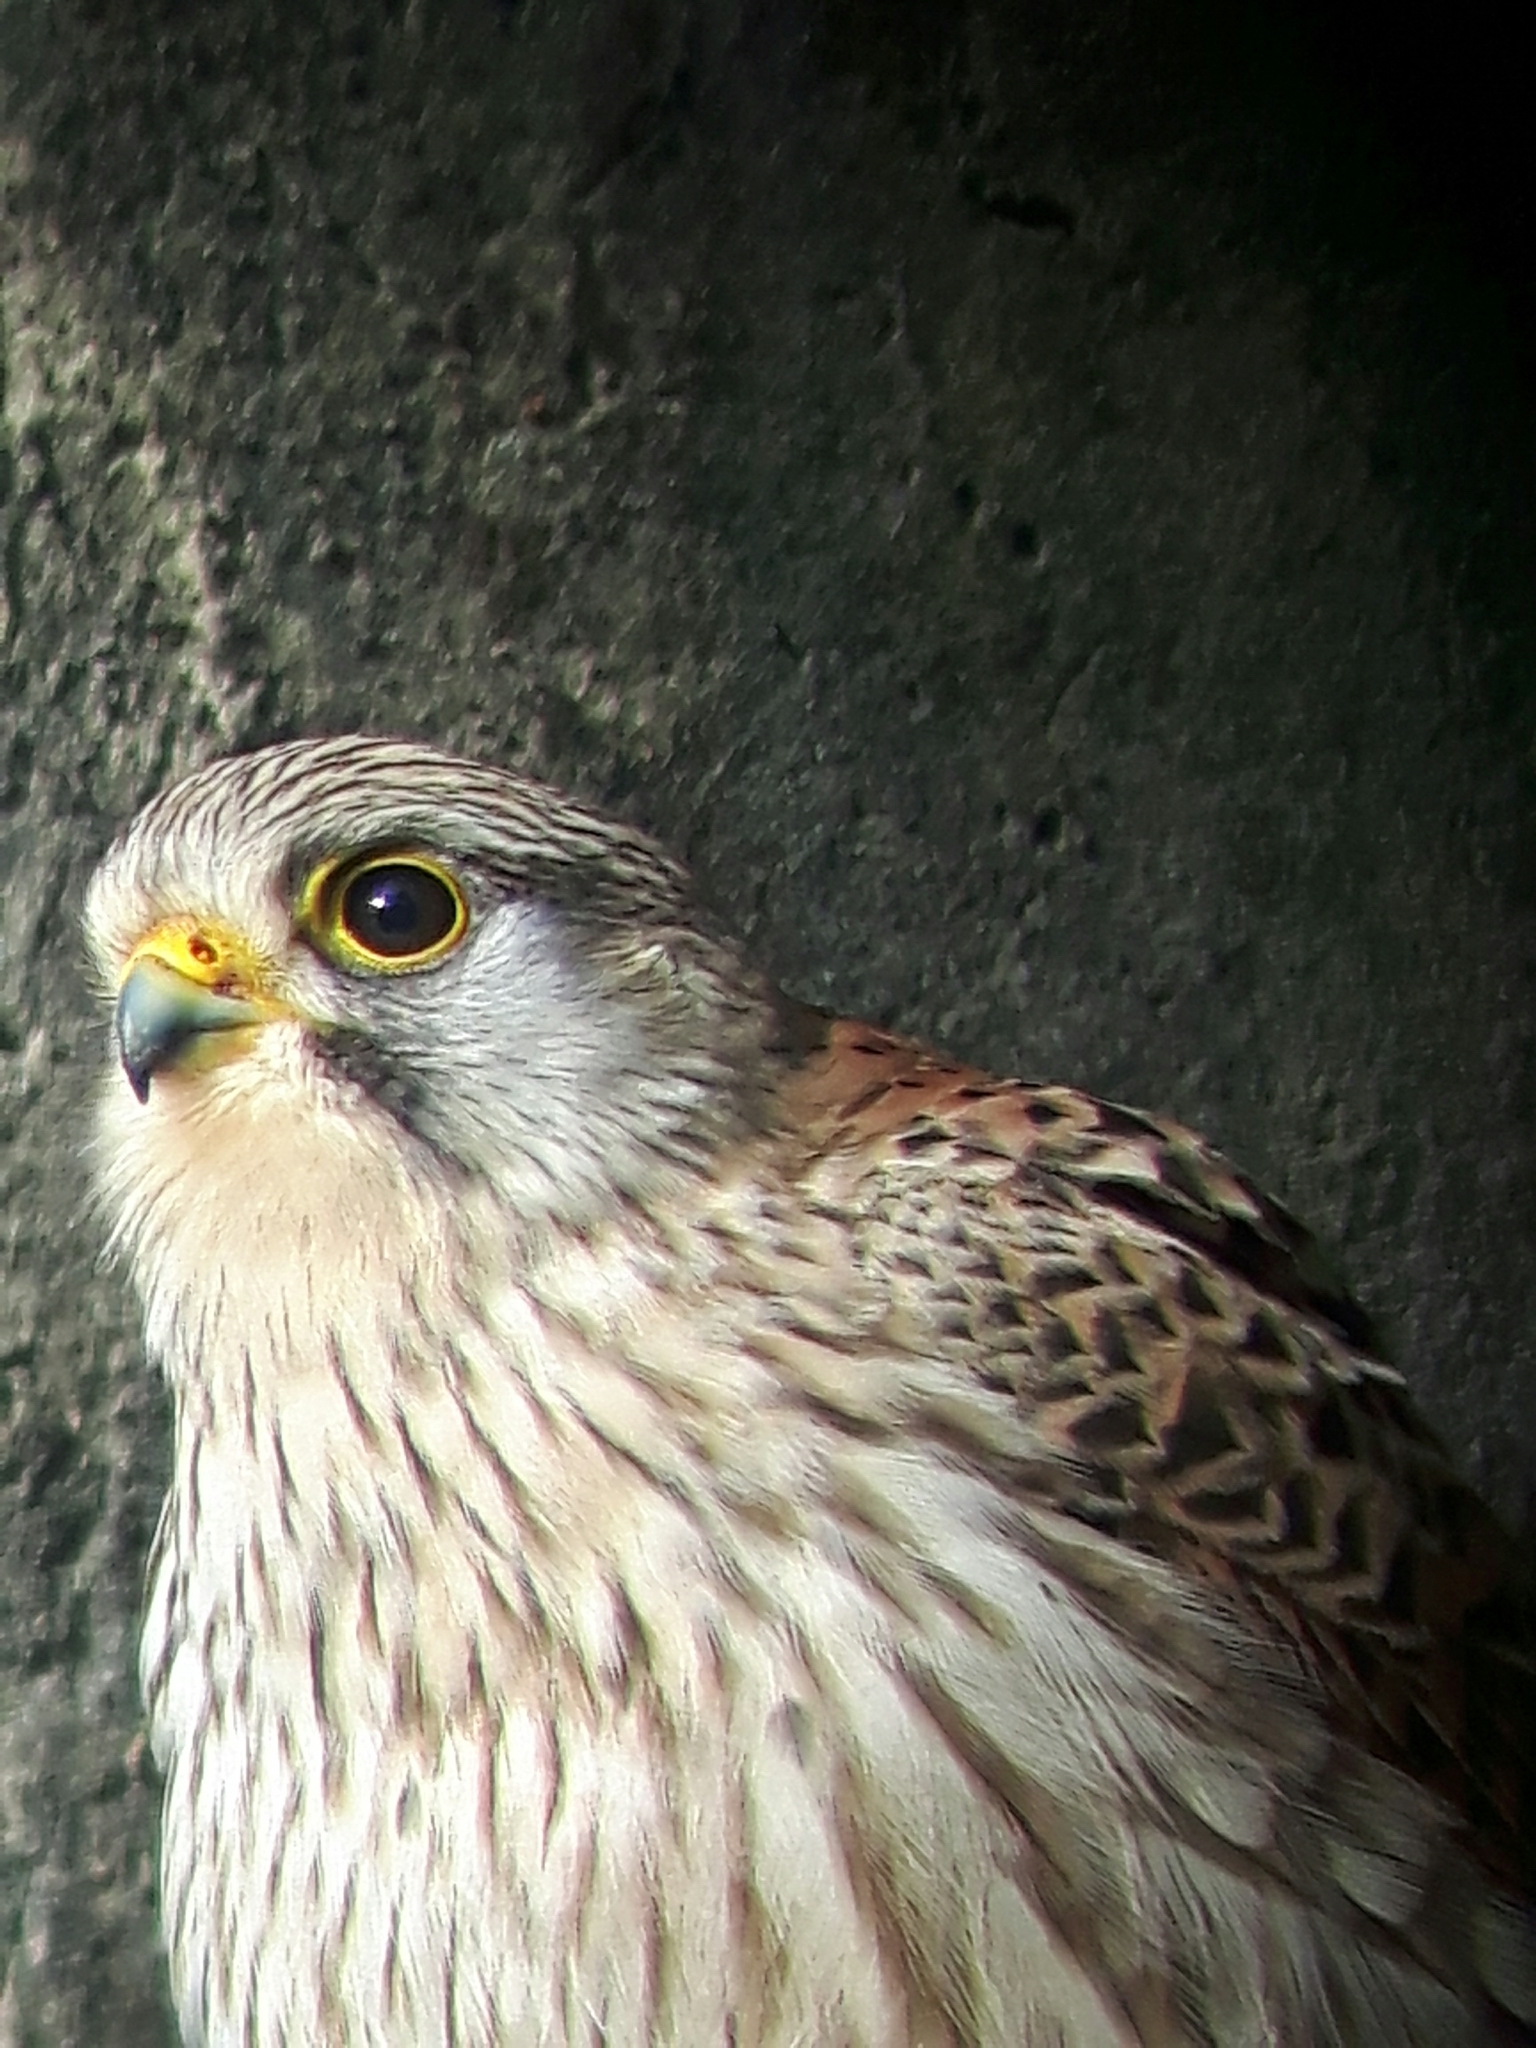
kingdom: Animalia
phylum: Chordata
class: Aves
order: Falconiformes
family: Falconidae
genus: Falco
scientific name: Falco tinnunculus
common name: Common kestrel
